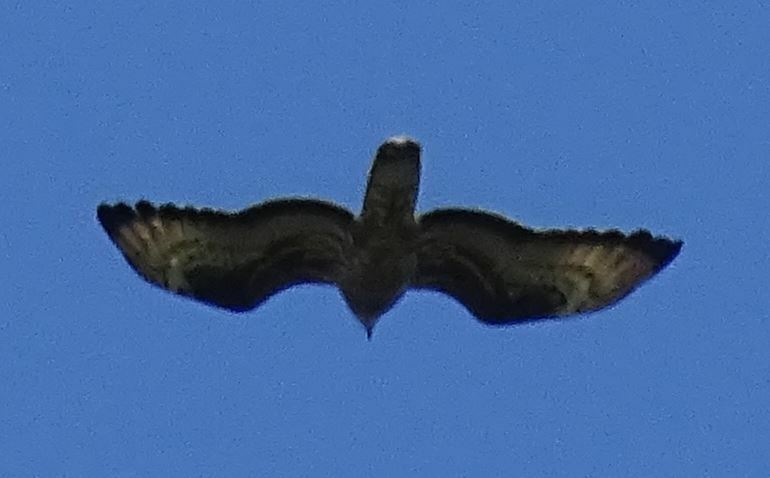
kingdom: Animalia
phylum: Chordata
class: Aves
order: Accipitriformes
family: Accipitridae
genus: Pernis
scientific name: Pernis apivorus
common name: European honey buzzard
